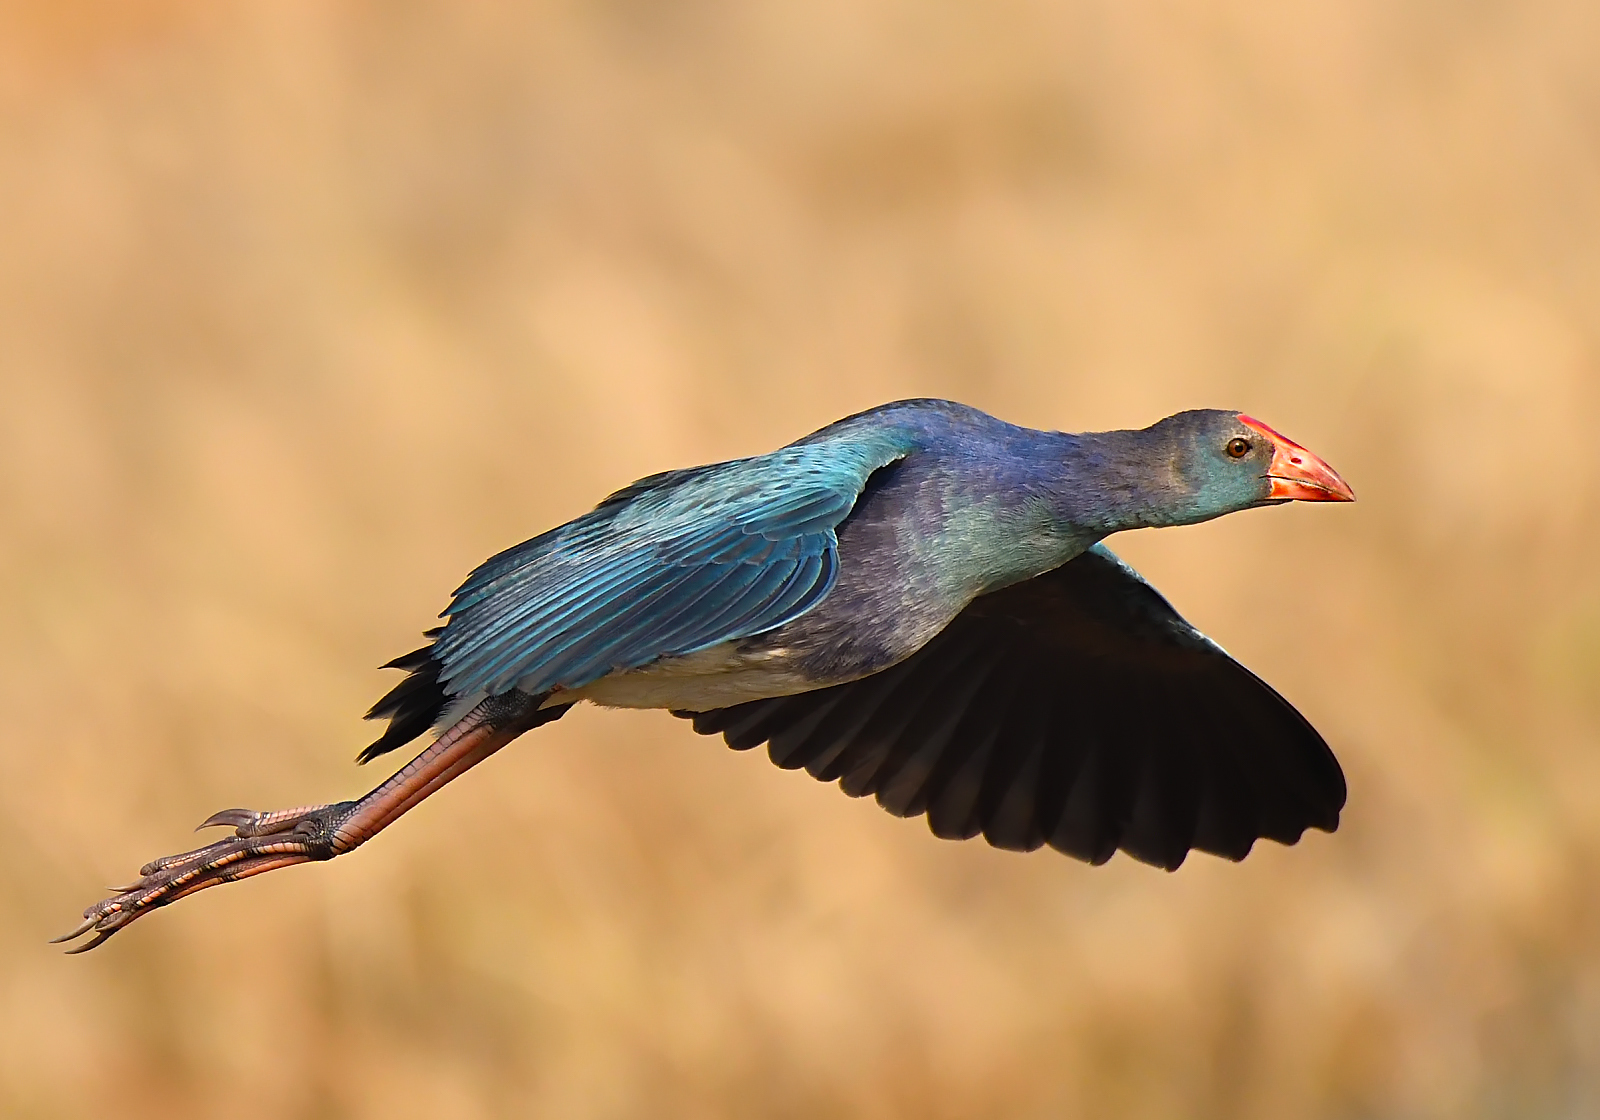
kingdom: Animalia
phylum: Chordata
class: Aves
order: Gruiformes
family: Rallidae
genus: Porphyrio
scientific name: Porphyrio porphyrio
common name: Purple swamphen
